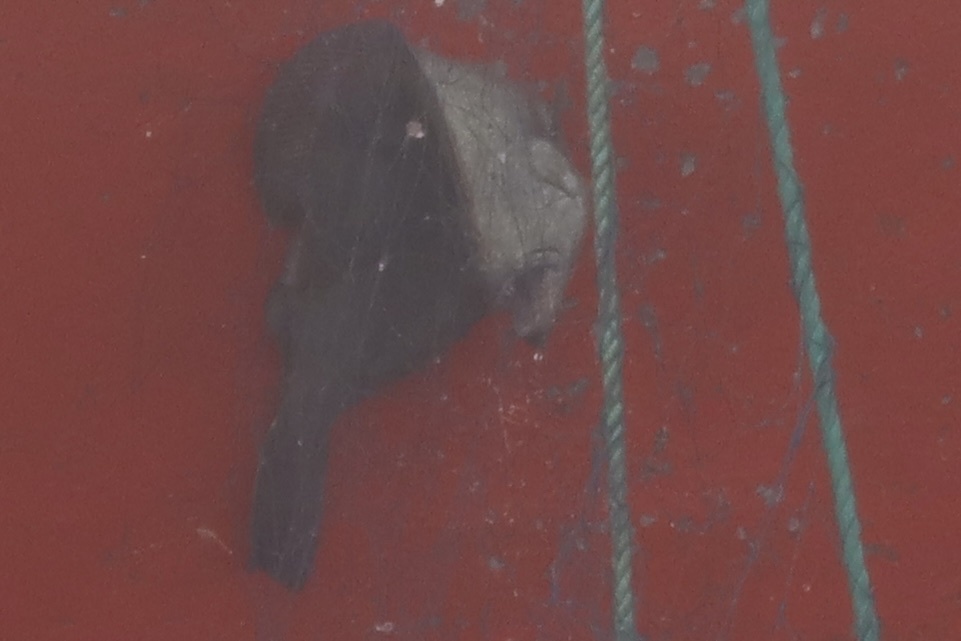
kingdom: Animalia
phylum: Chordata
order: Pleuronectiformes
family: Pleuronectidae
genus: Reinhardtius
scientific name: Reinhardtius hippoglossoides
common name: Greenland halibut
